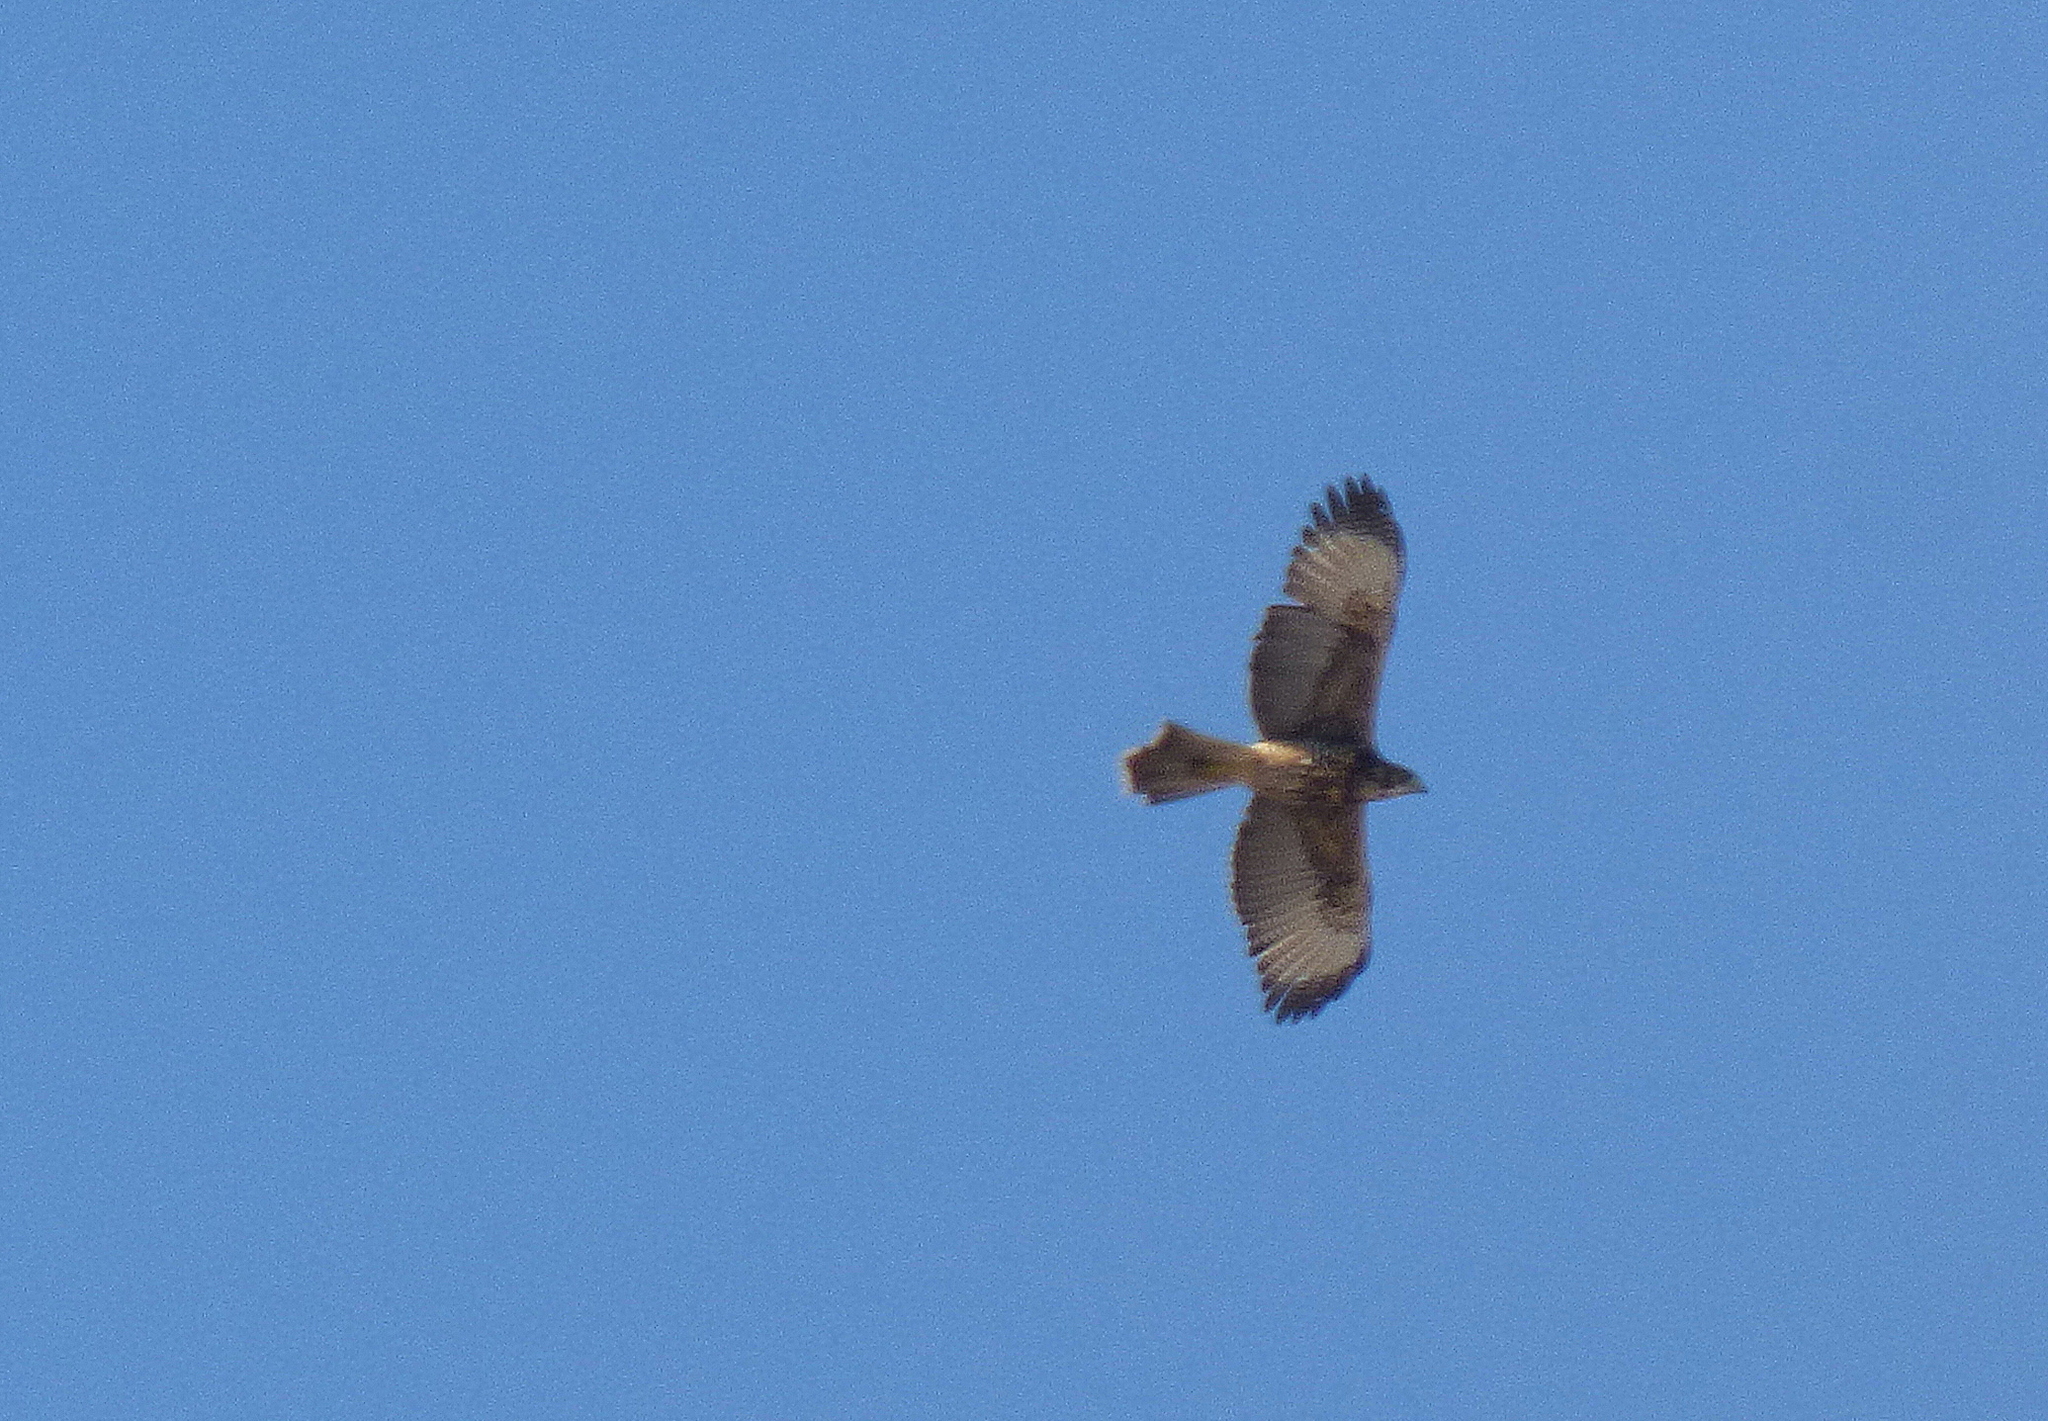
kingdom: Animalia
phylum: Chordata
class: Aves
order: Accipitriformes
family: Accipitridae
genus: Parabuteo
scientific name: Parabuteo unicinctus
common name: Harris's hawk
